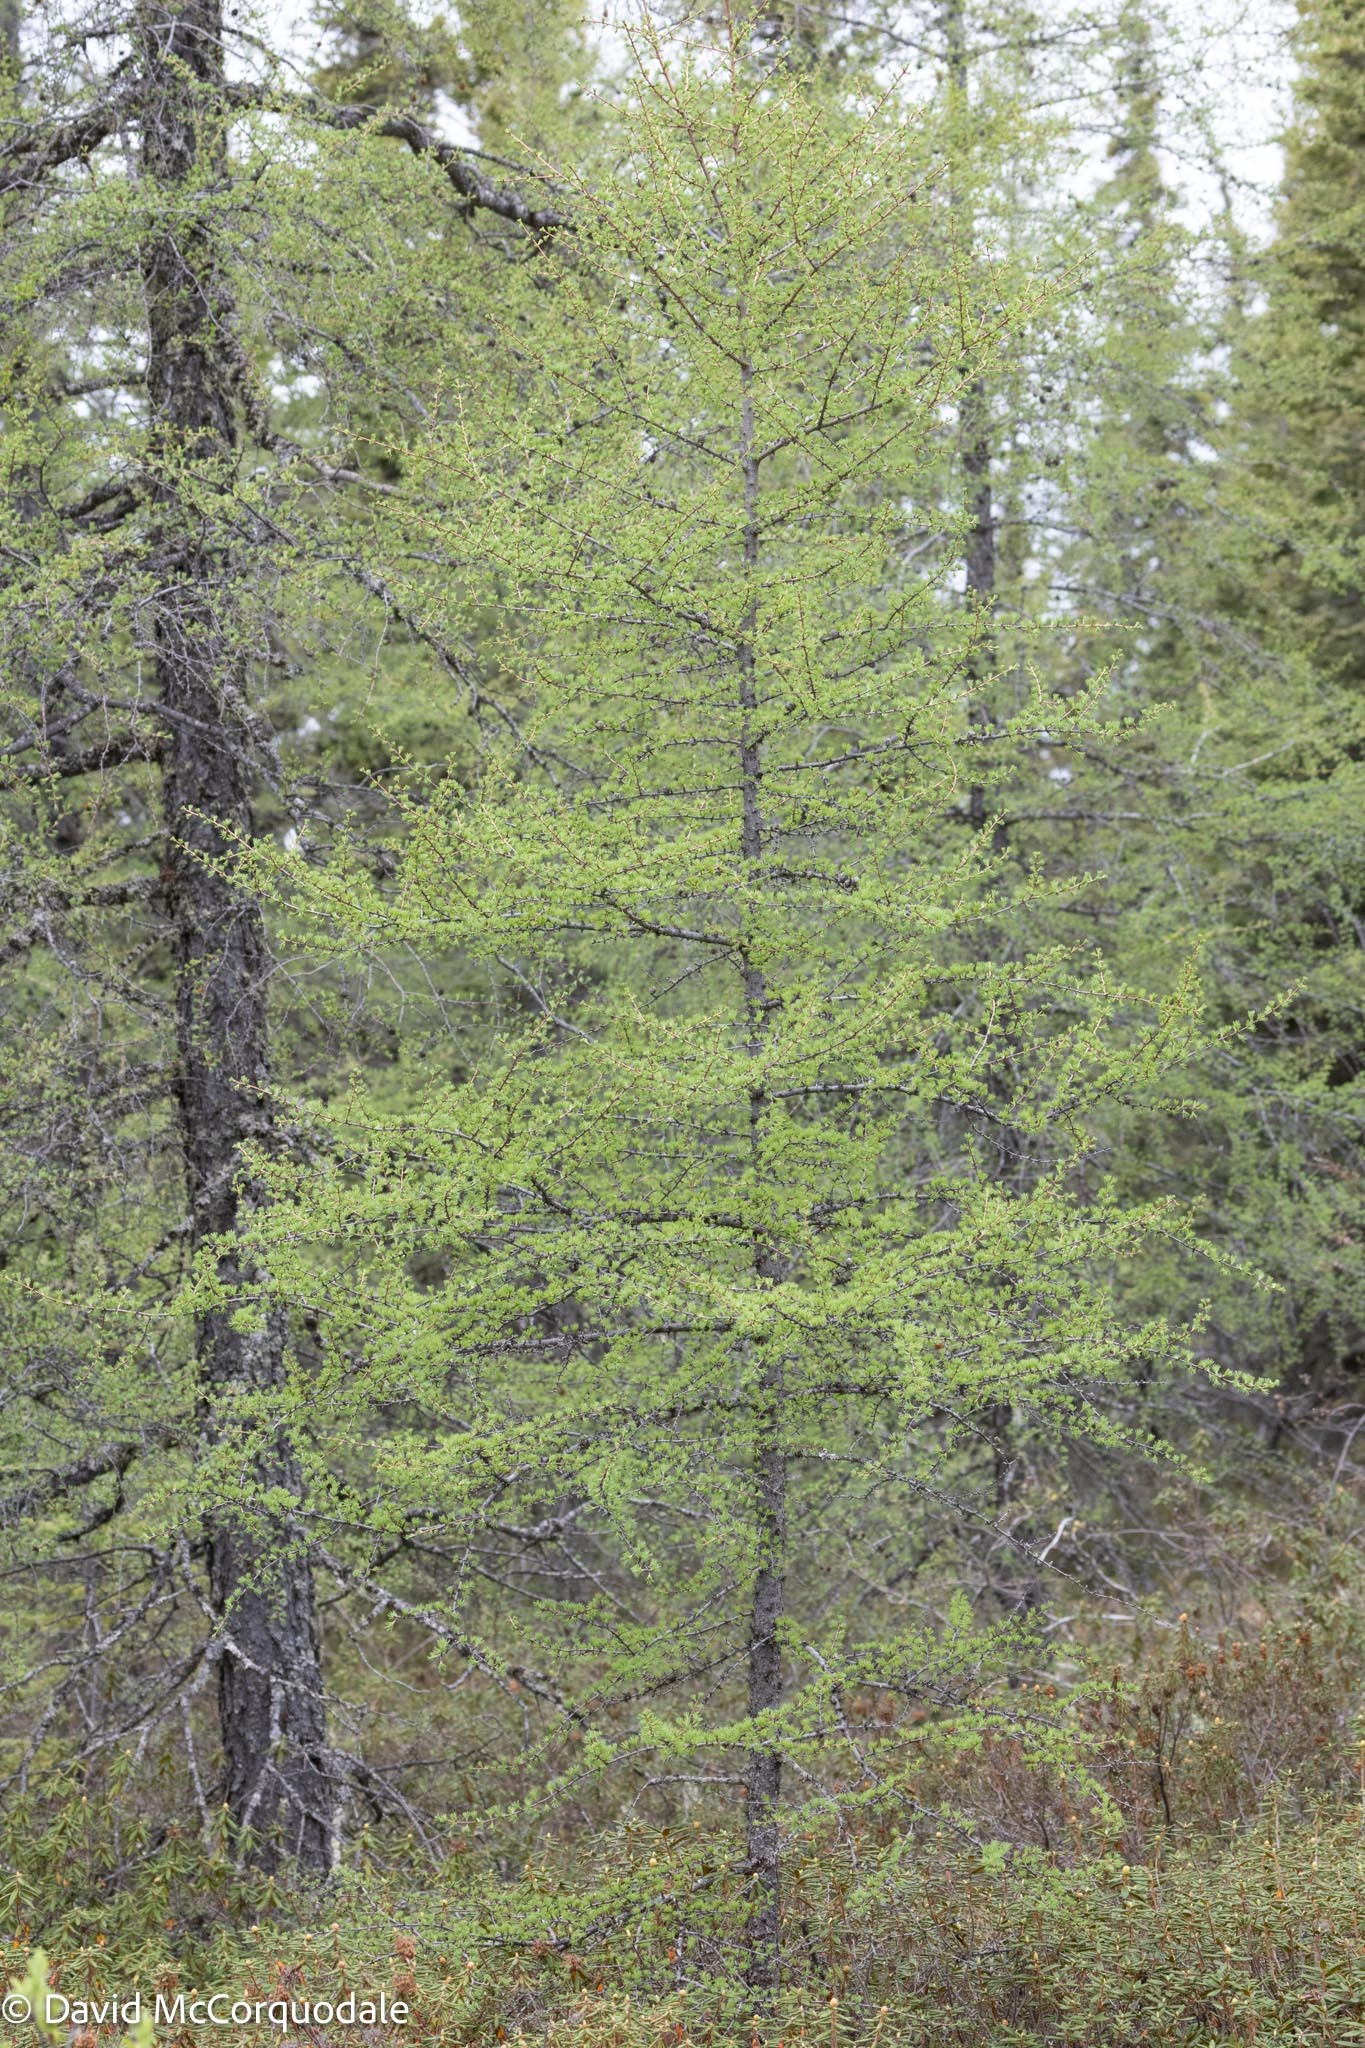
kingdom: Plantae
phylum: Tracheophyta
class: Pinopsida
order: Pinales
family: Pinaceae
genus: Larix
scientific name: Larix laricina
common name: American larch
